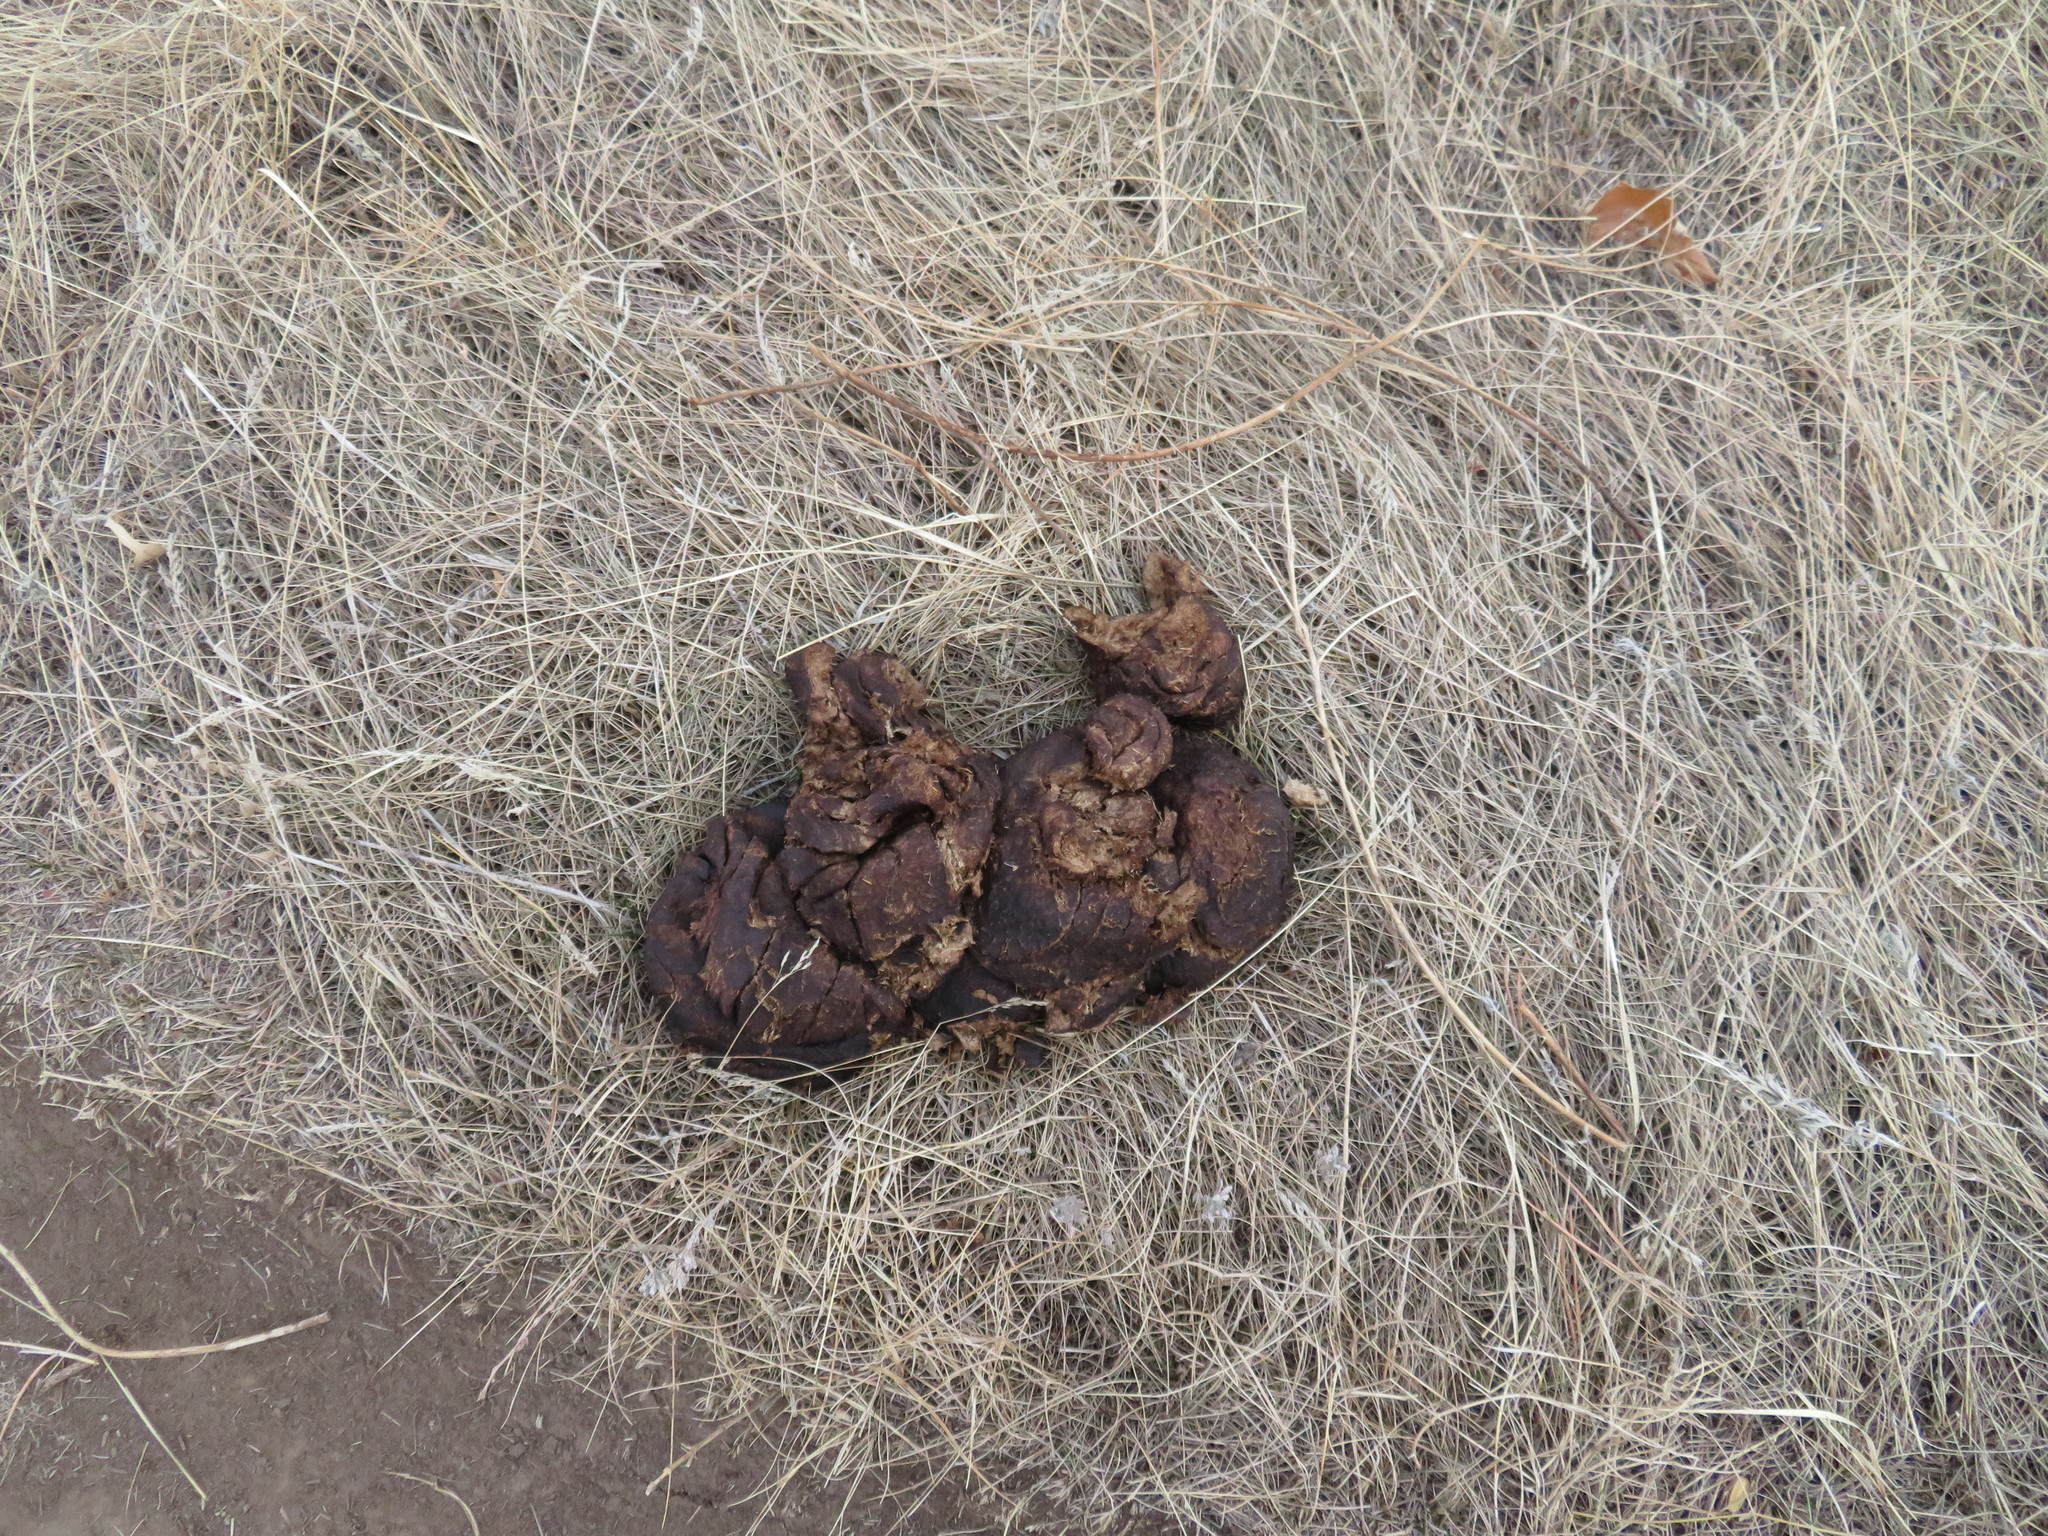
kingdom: Animalia
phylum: Chordata
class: Mammalia
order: Artiodactyla
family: Antilocapridae
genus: Antilocapra
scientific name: Antilocapra americana
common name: Pronghorn
